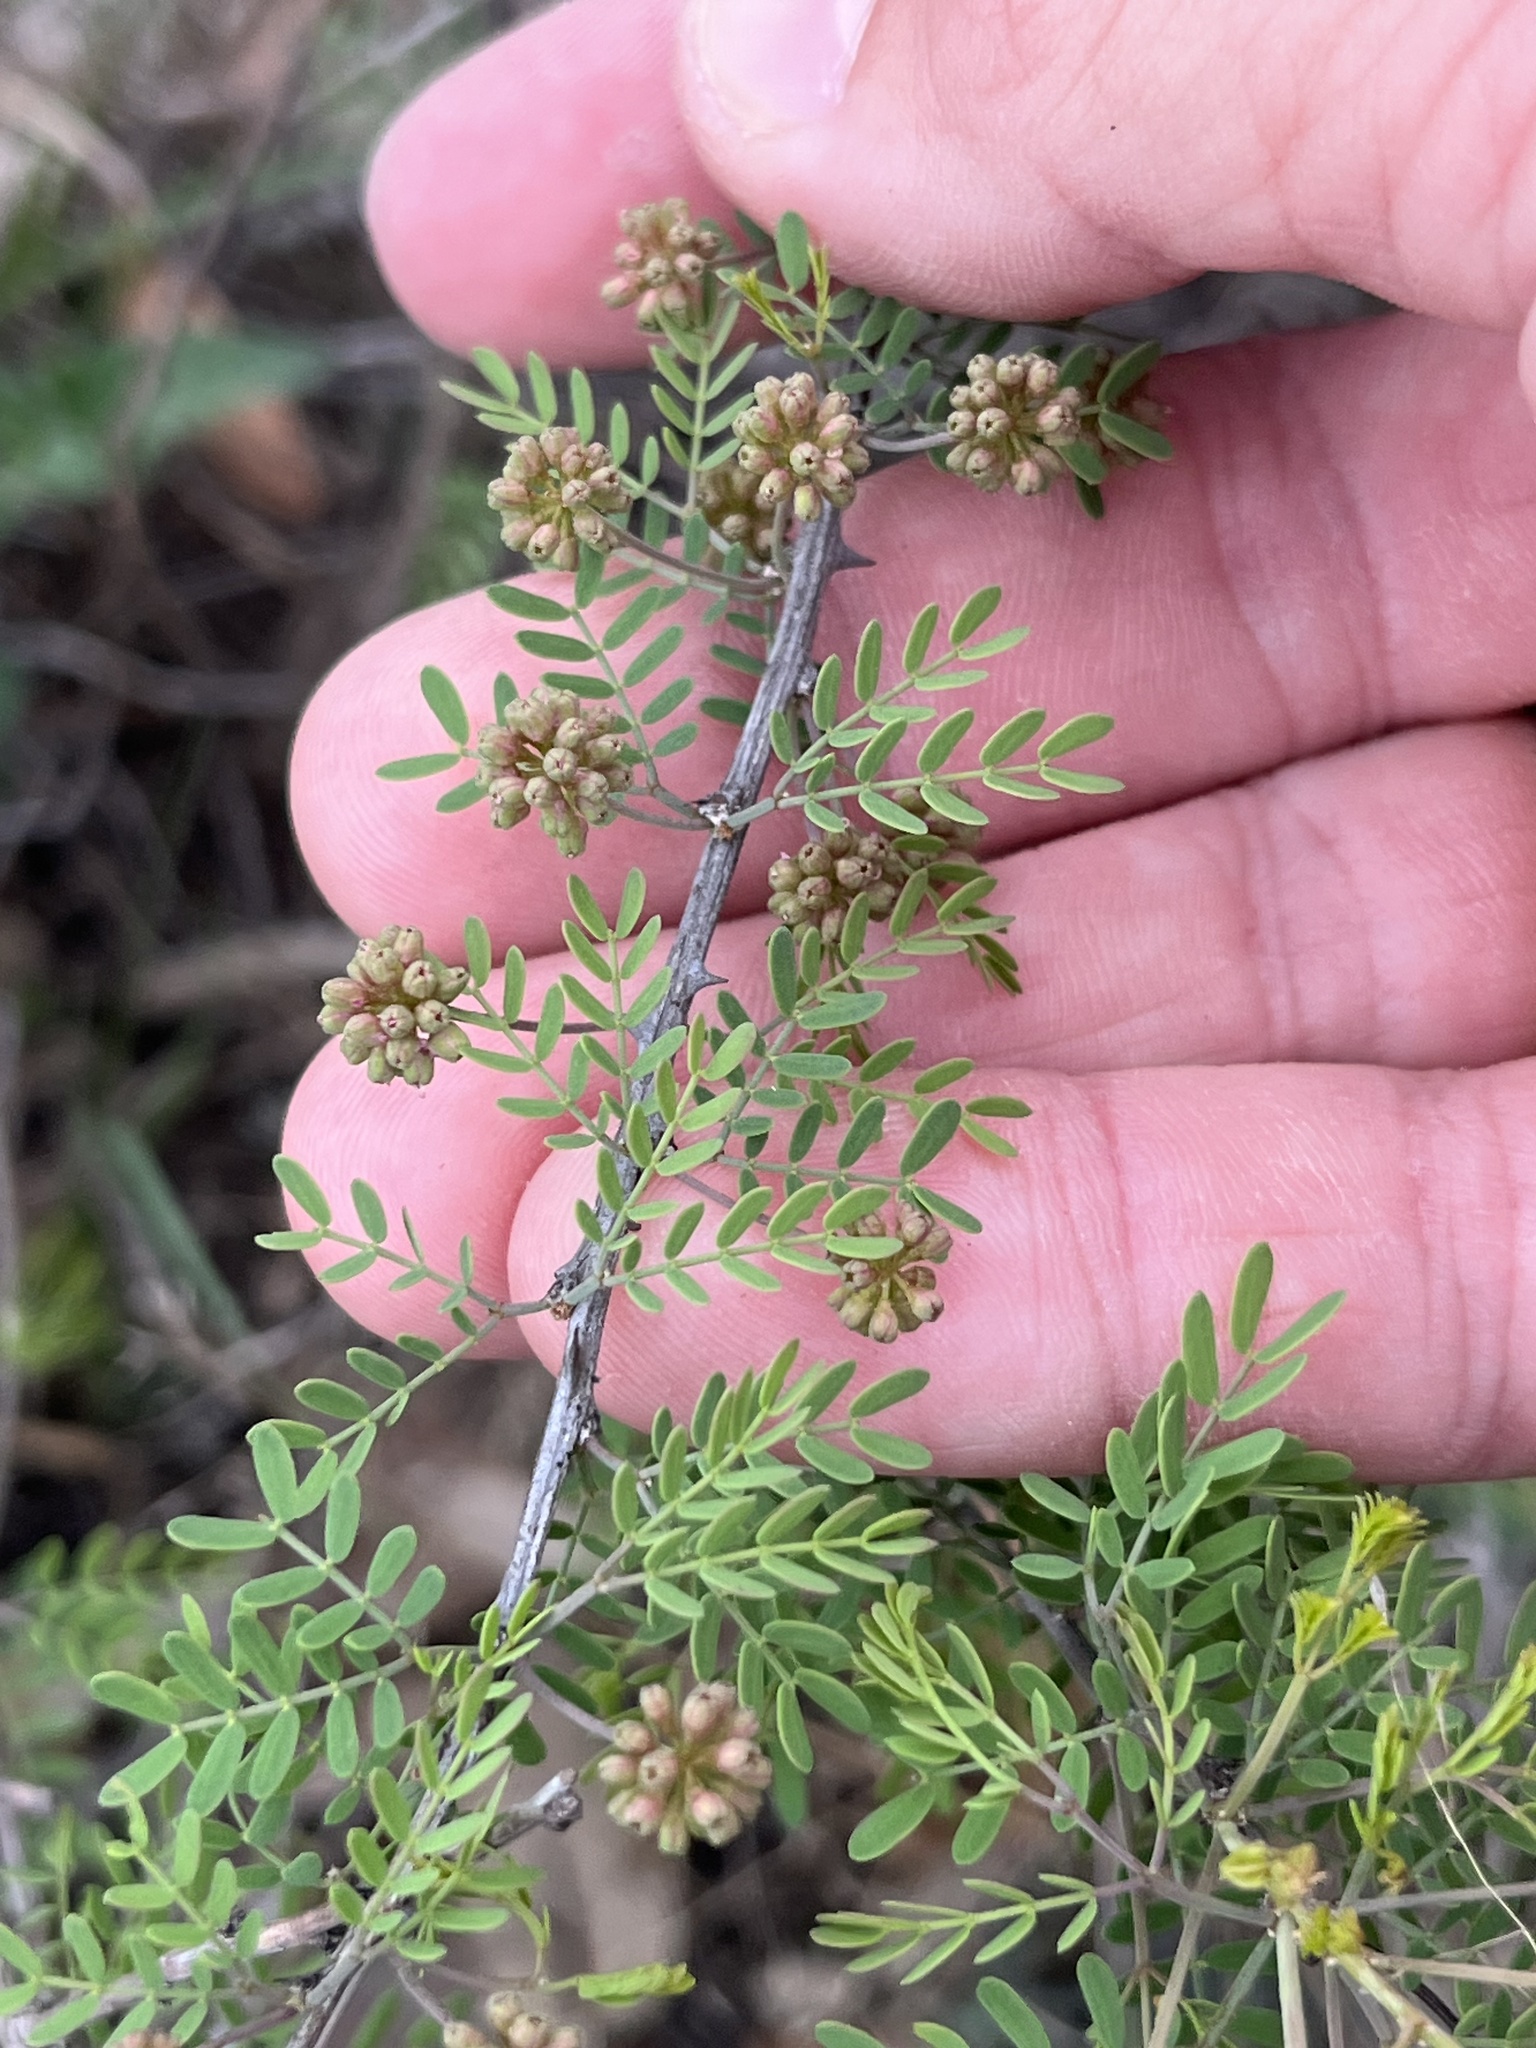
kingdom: Plantae
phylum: Tracheophyta
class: Magnoliopsida
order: Fabales
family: Fabaceae
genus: Mimosa
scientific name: Mimosa borealis
